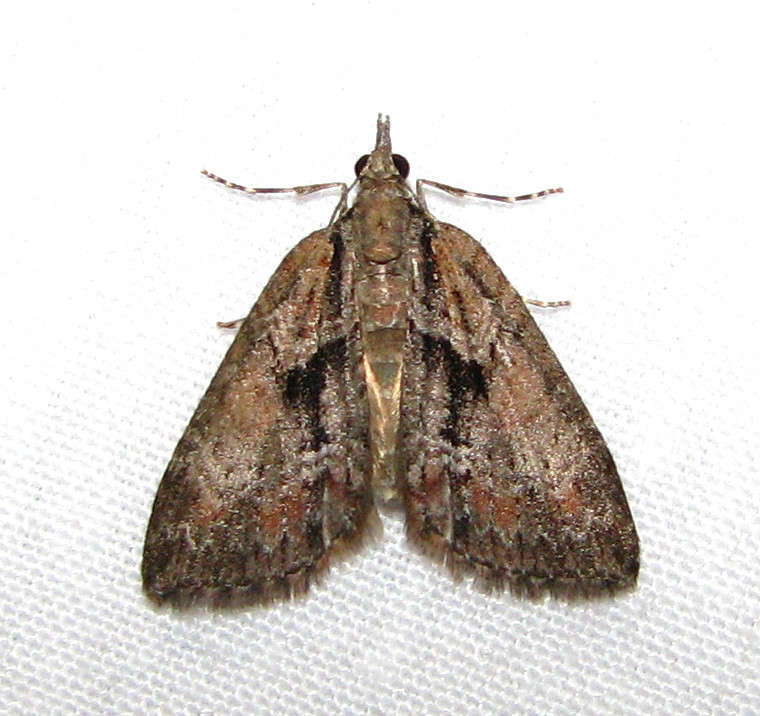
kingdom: Animalia
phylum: Arthropoda
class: Insecta
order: Lepidoptera
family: Geometridae
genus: Microdes
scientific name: Microdes melanocausta
